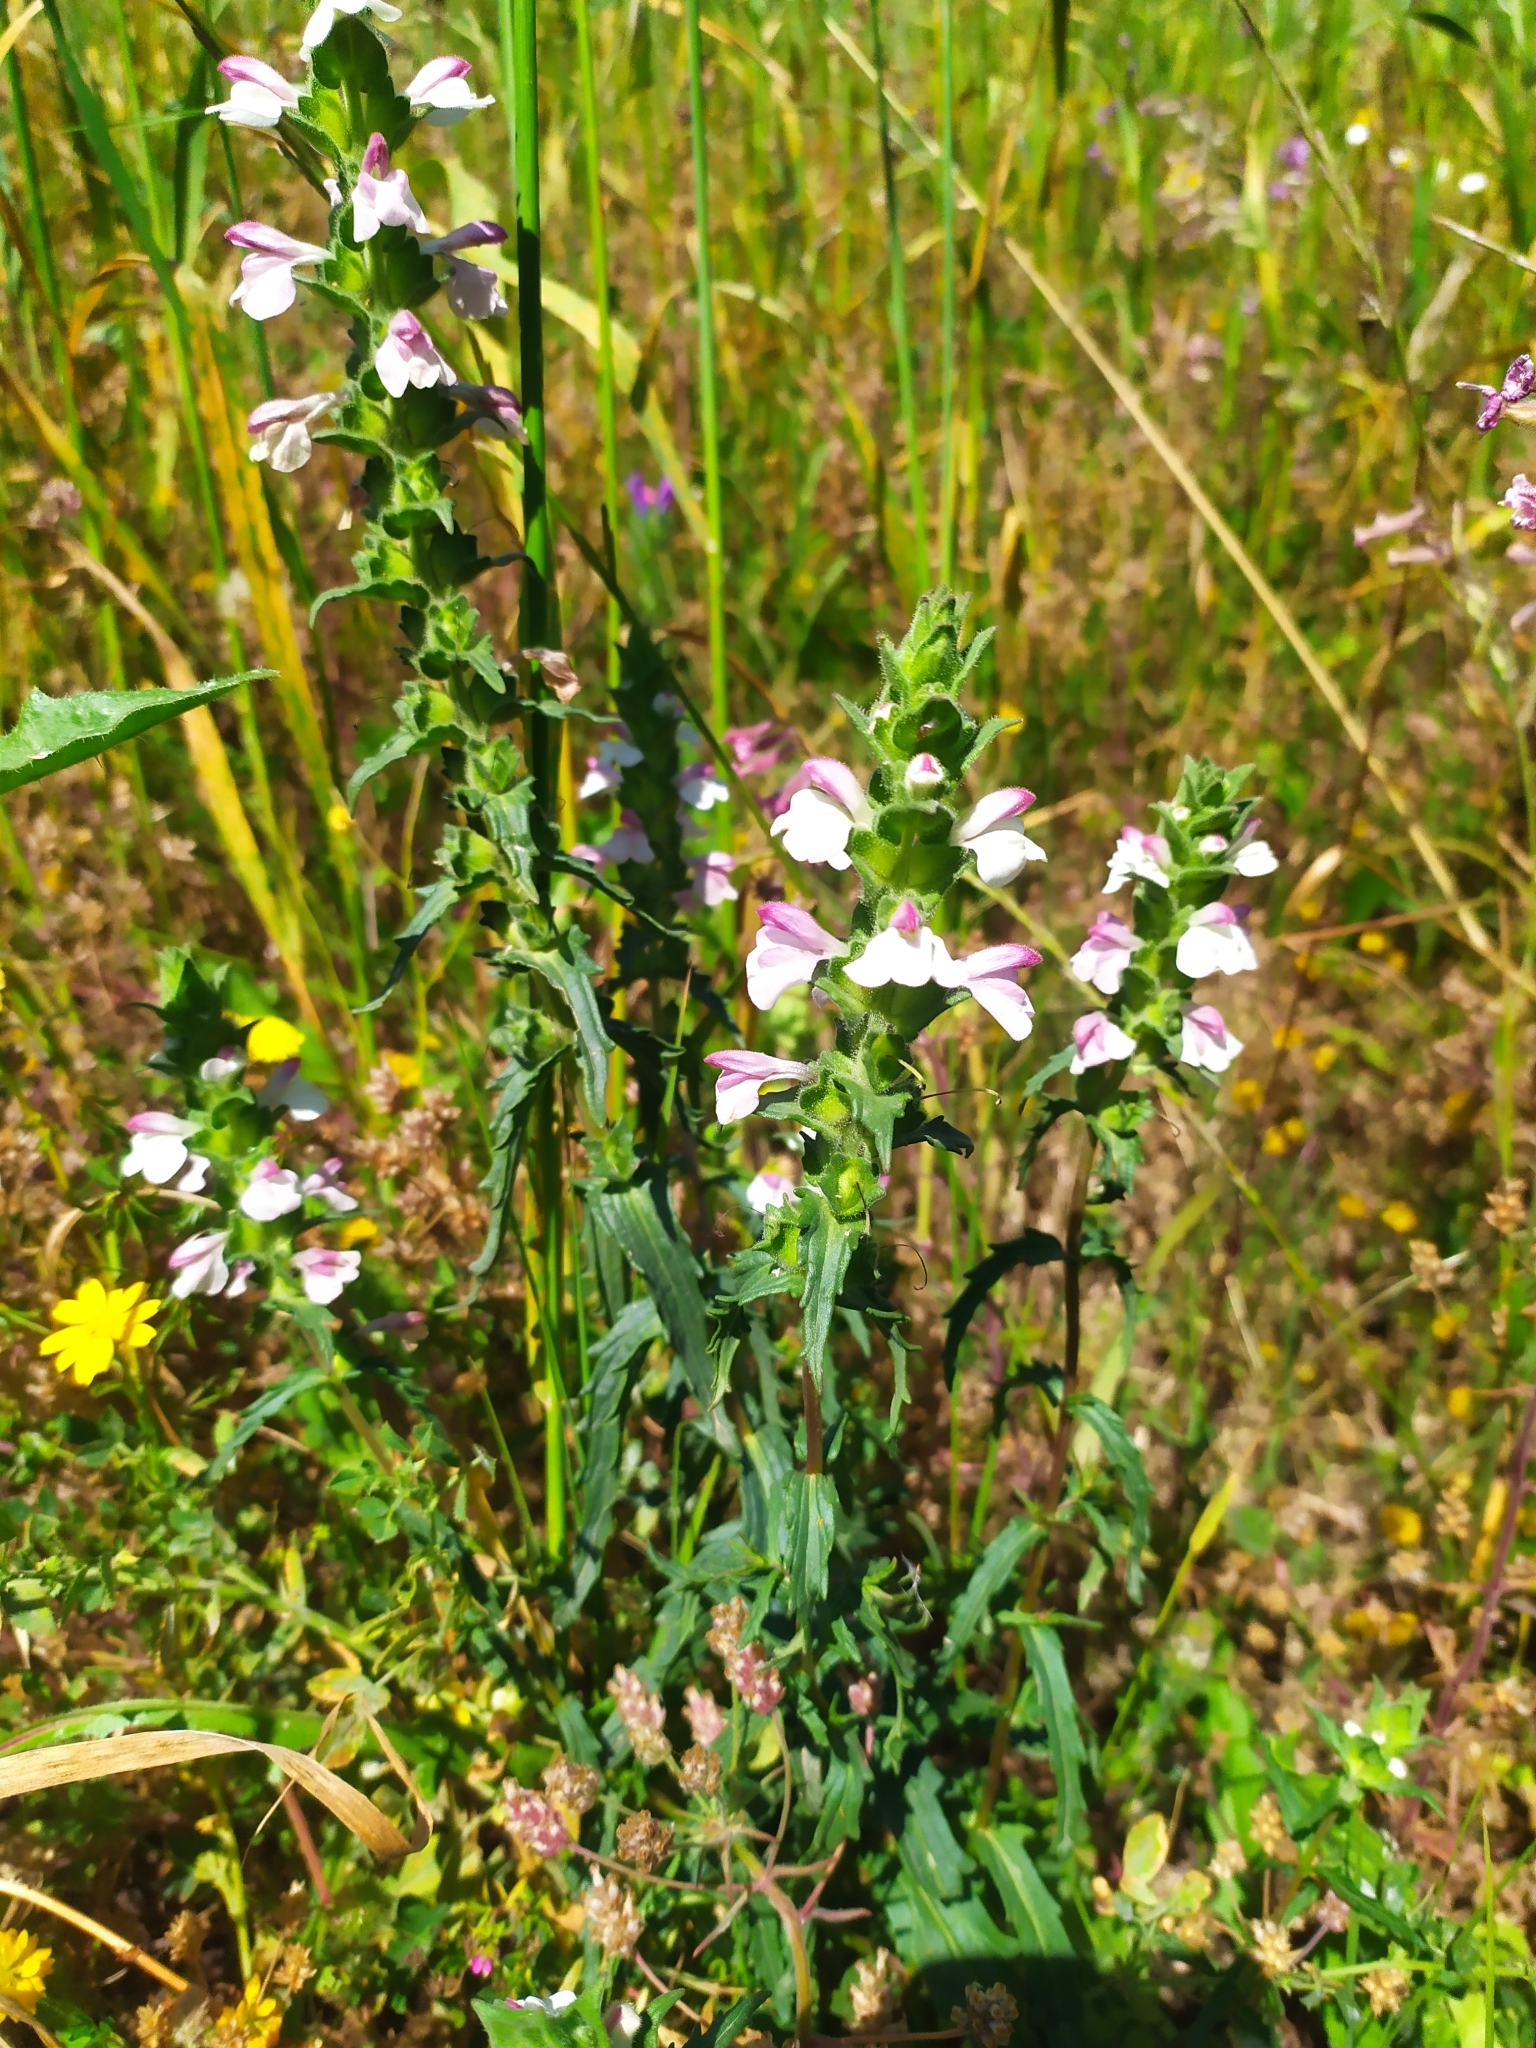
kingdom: Plantae
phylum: Tracheophyta
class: Magnoliopsida
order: Lamiales
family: Orobanchaceae
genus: Bellardia
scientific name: Bellardia trixago
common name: Mediterranean lineseed
